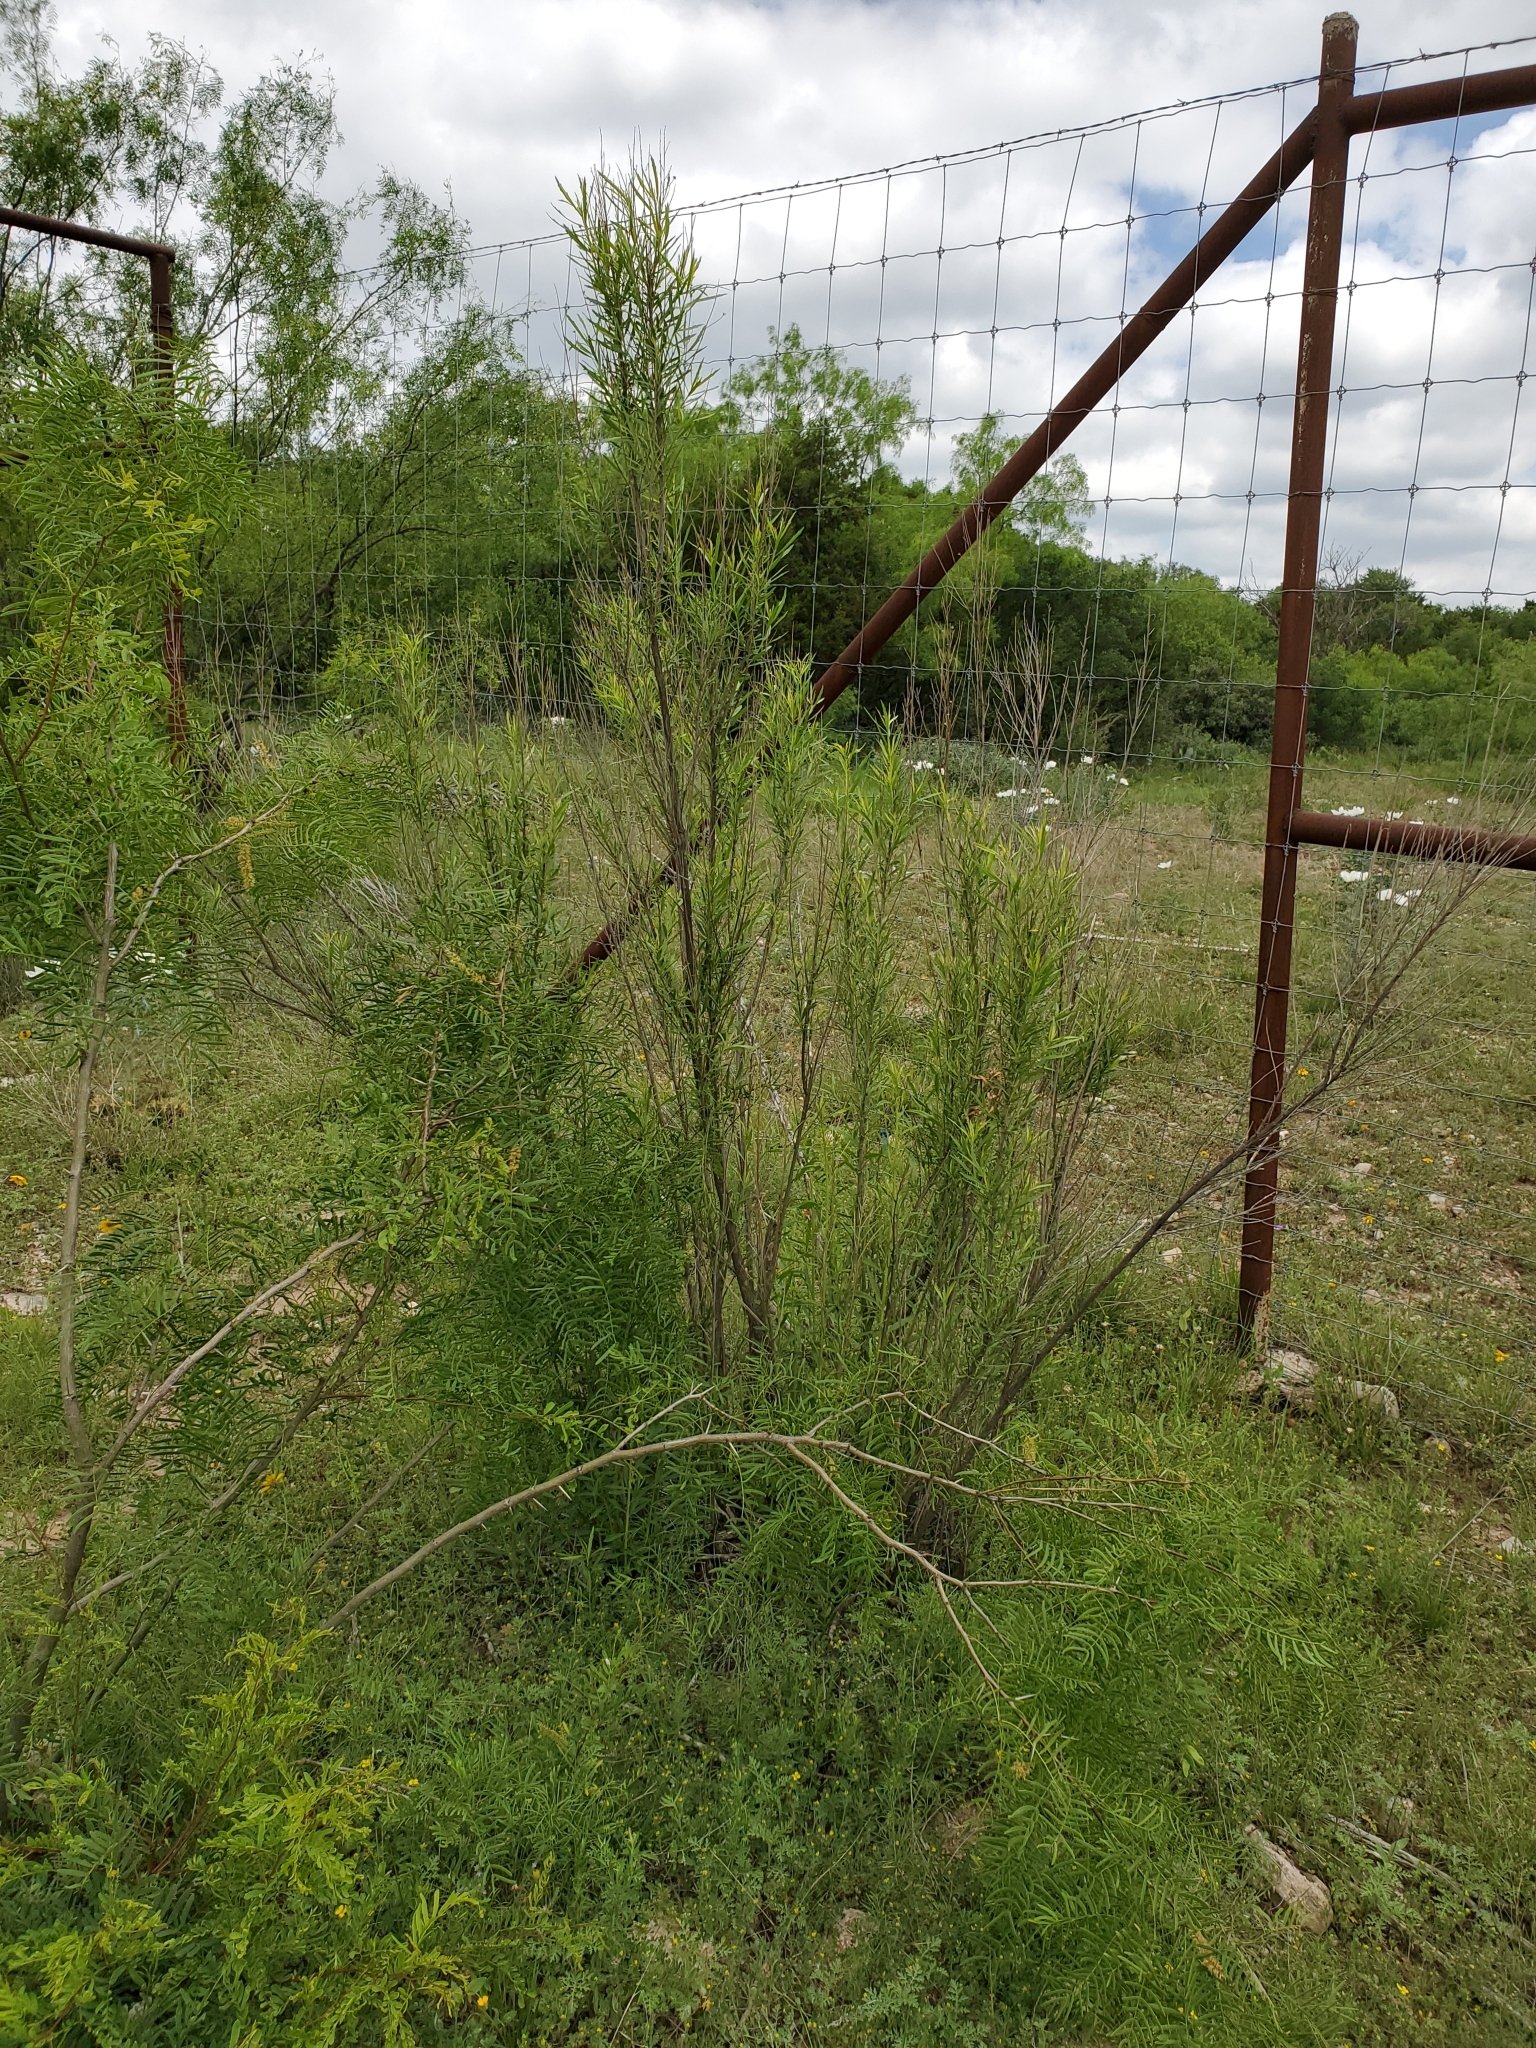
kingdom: Plantae
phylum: Tracheophyta
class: Magnoliopsida
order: Asterales
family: Asteraceae
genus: Baccharis
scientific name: Baccharis neglecta
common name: Roosevelt-weed
